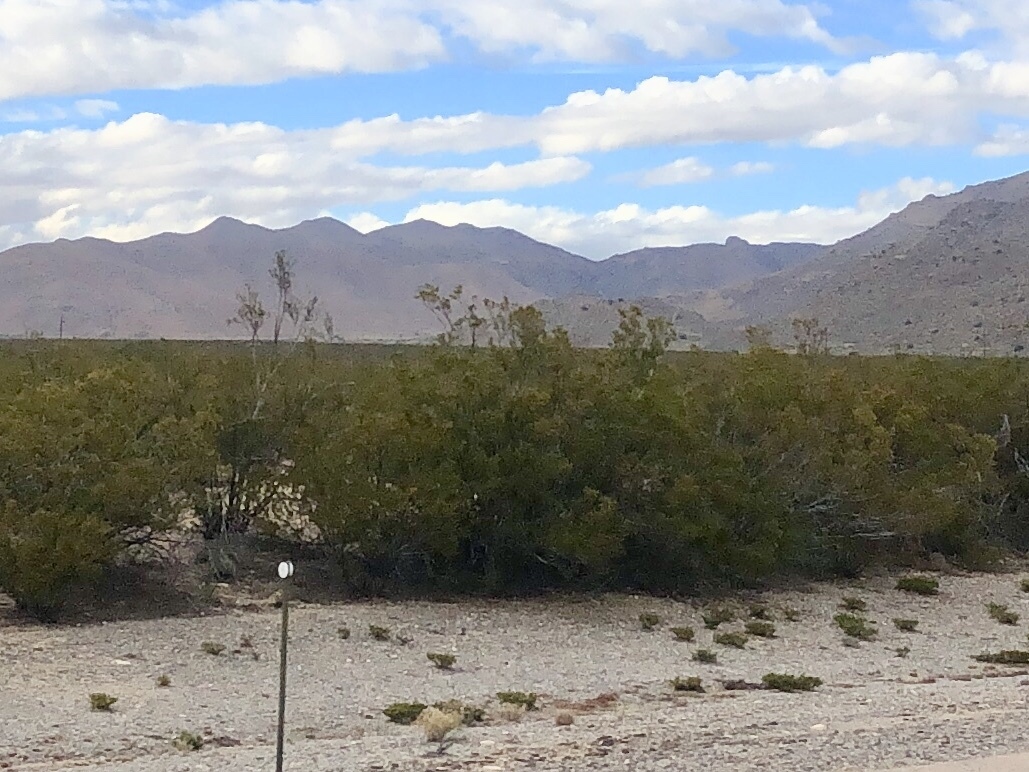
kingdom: Plantae
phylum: Tracheophyta
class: Magnoliopsida
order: Zygophyllales
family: Zygophyllaceae
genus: Larrea
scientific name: Larrea tridentata
